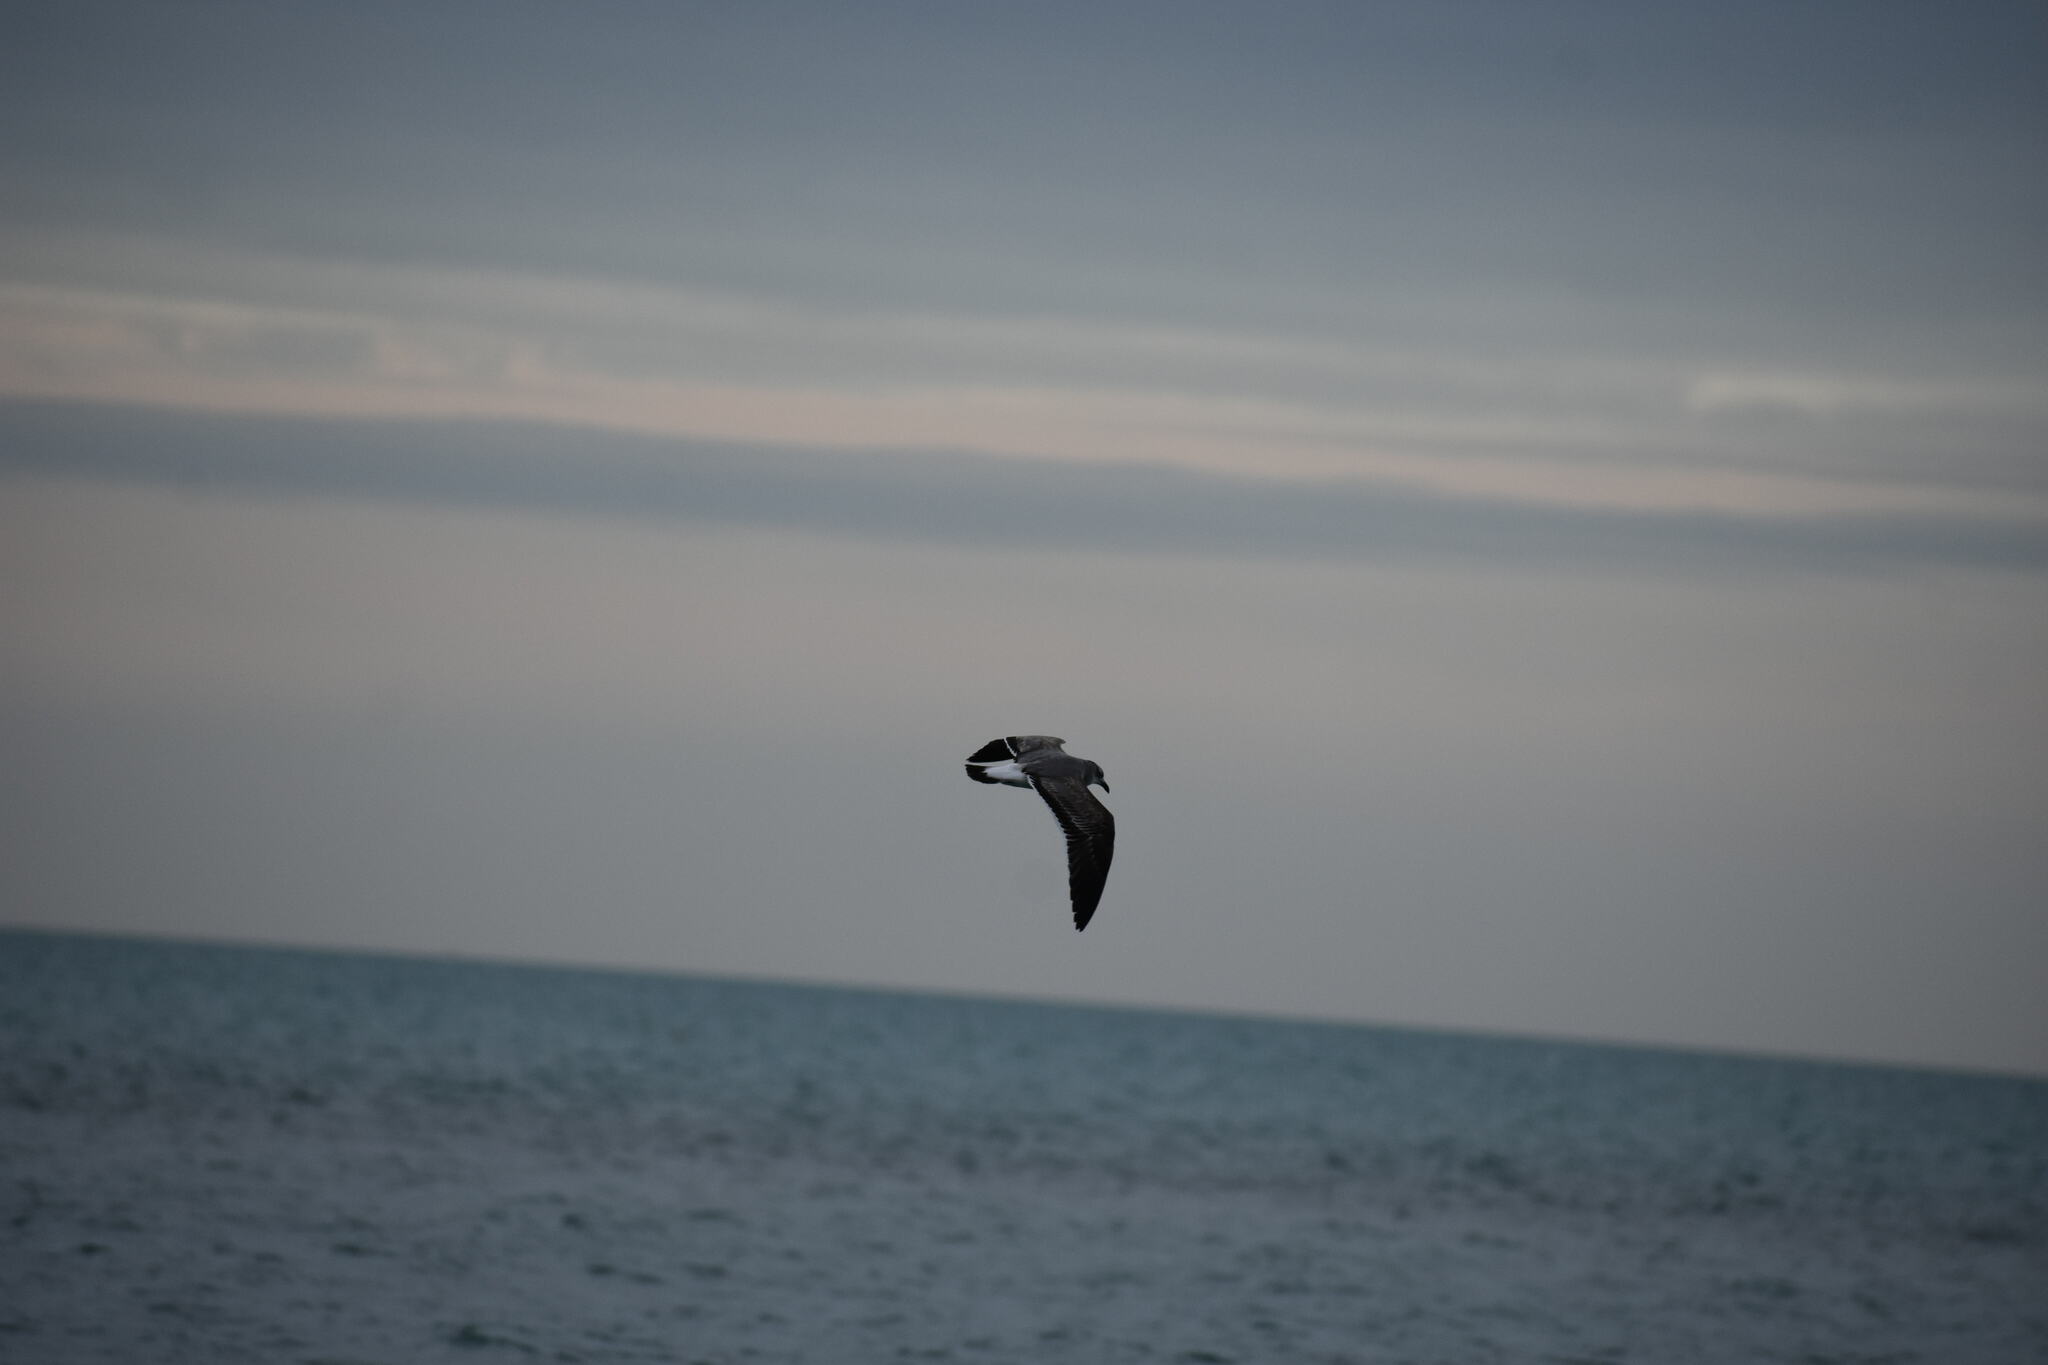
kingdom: Animalia
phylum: Chordata
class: Aves
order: Charadriiformes
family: Laridae
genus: Leucophaeus
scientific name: Leucophaeus atricilla
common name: Laughing gull
